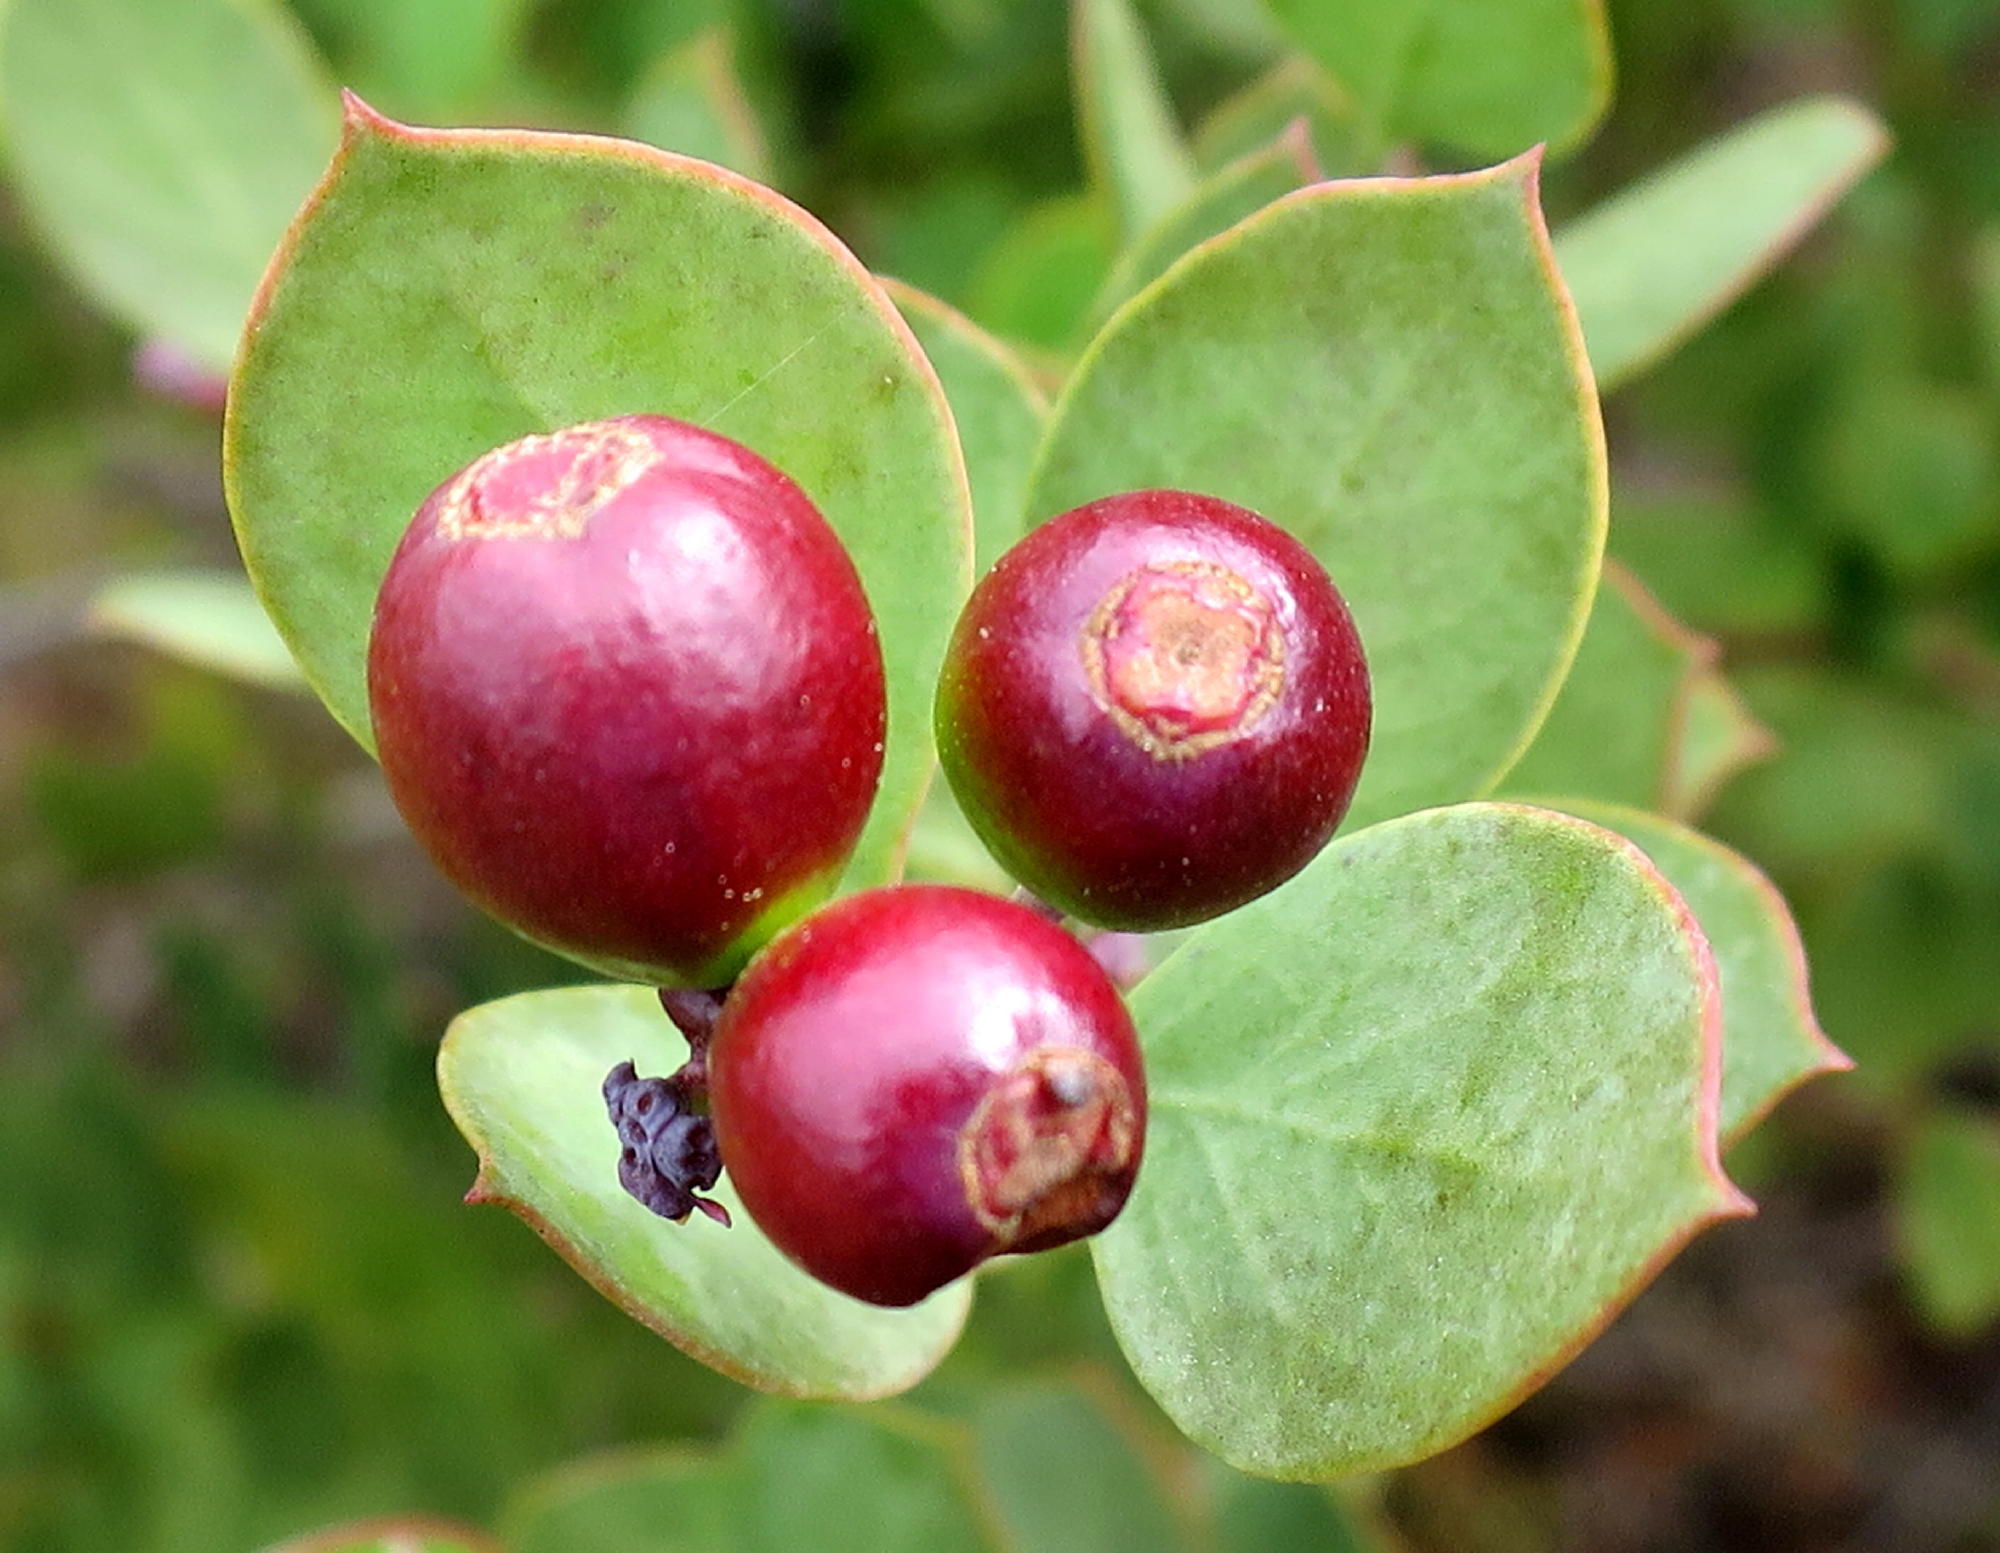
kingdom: Plantae
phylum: Tracheophyta
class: Magnoliopsida
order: Santalales
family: Santalaceae
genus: Osyris
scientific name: Osyris compressa
